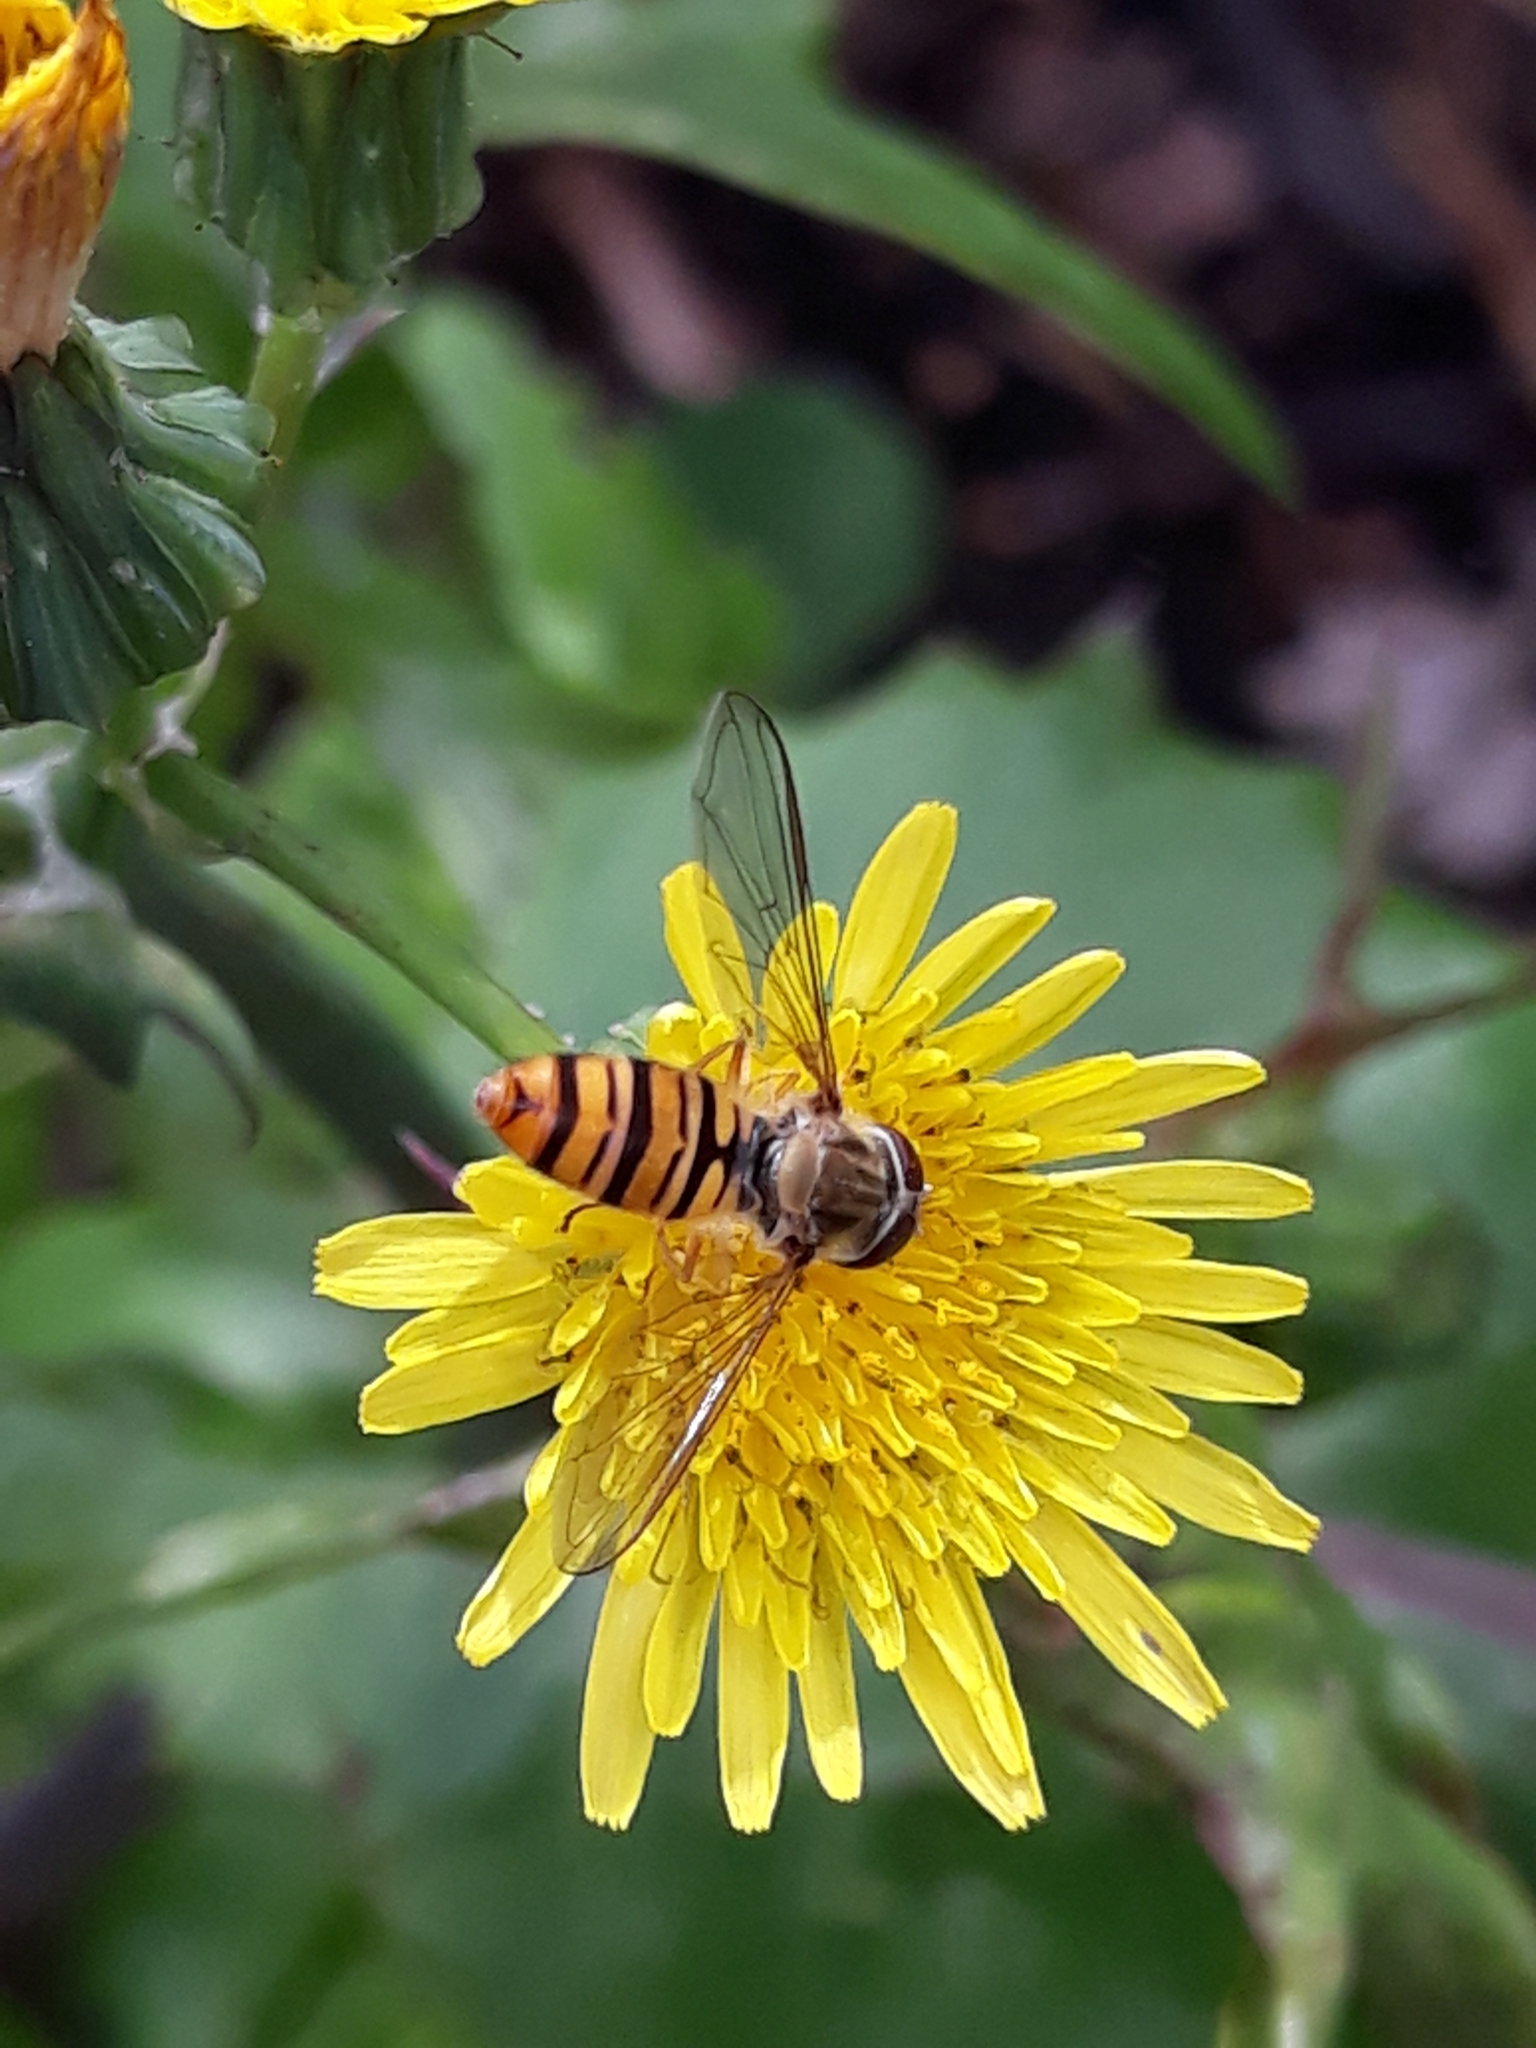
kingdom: Animalia
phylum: Arthropoda
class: Insecta
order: Diptera
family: Syrphidae
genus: Episyrphus
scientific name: Episyrphus balteatus
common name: Marmalade hoverfly
